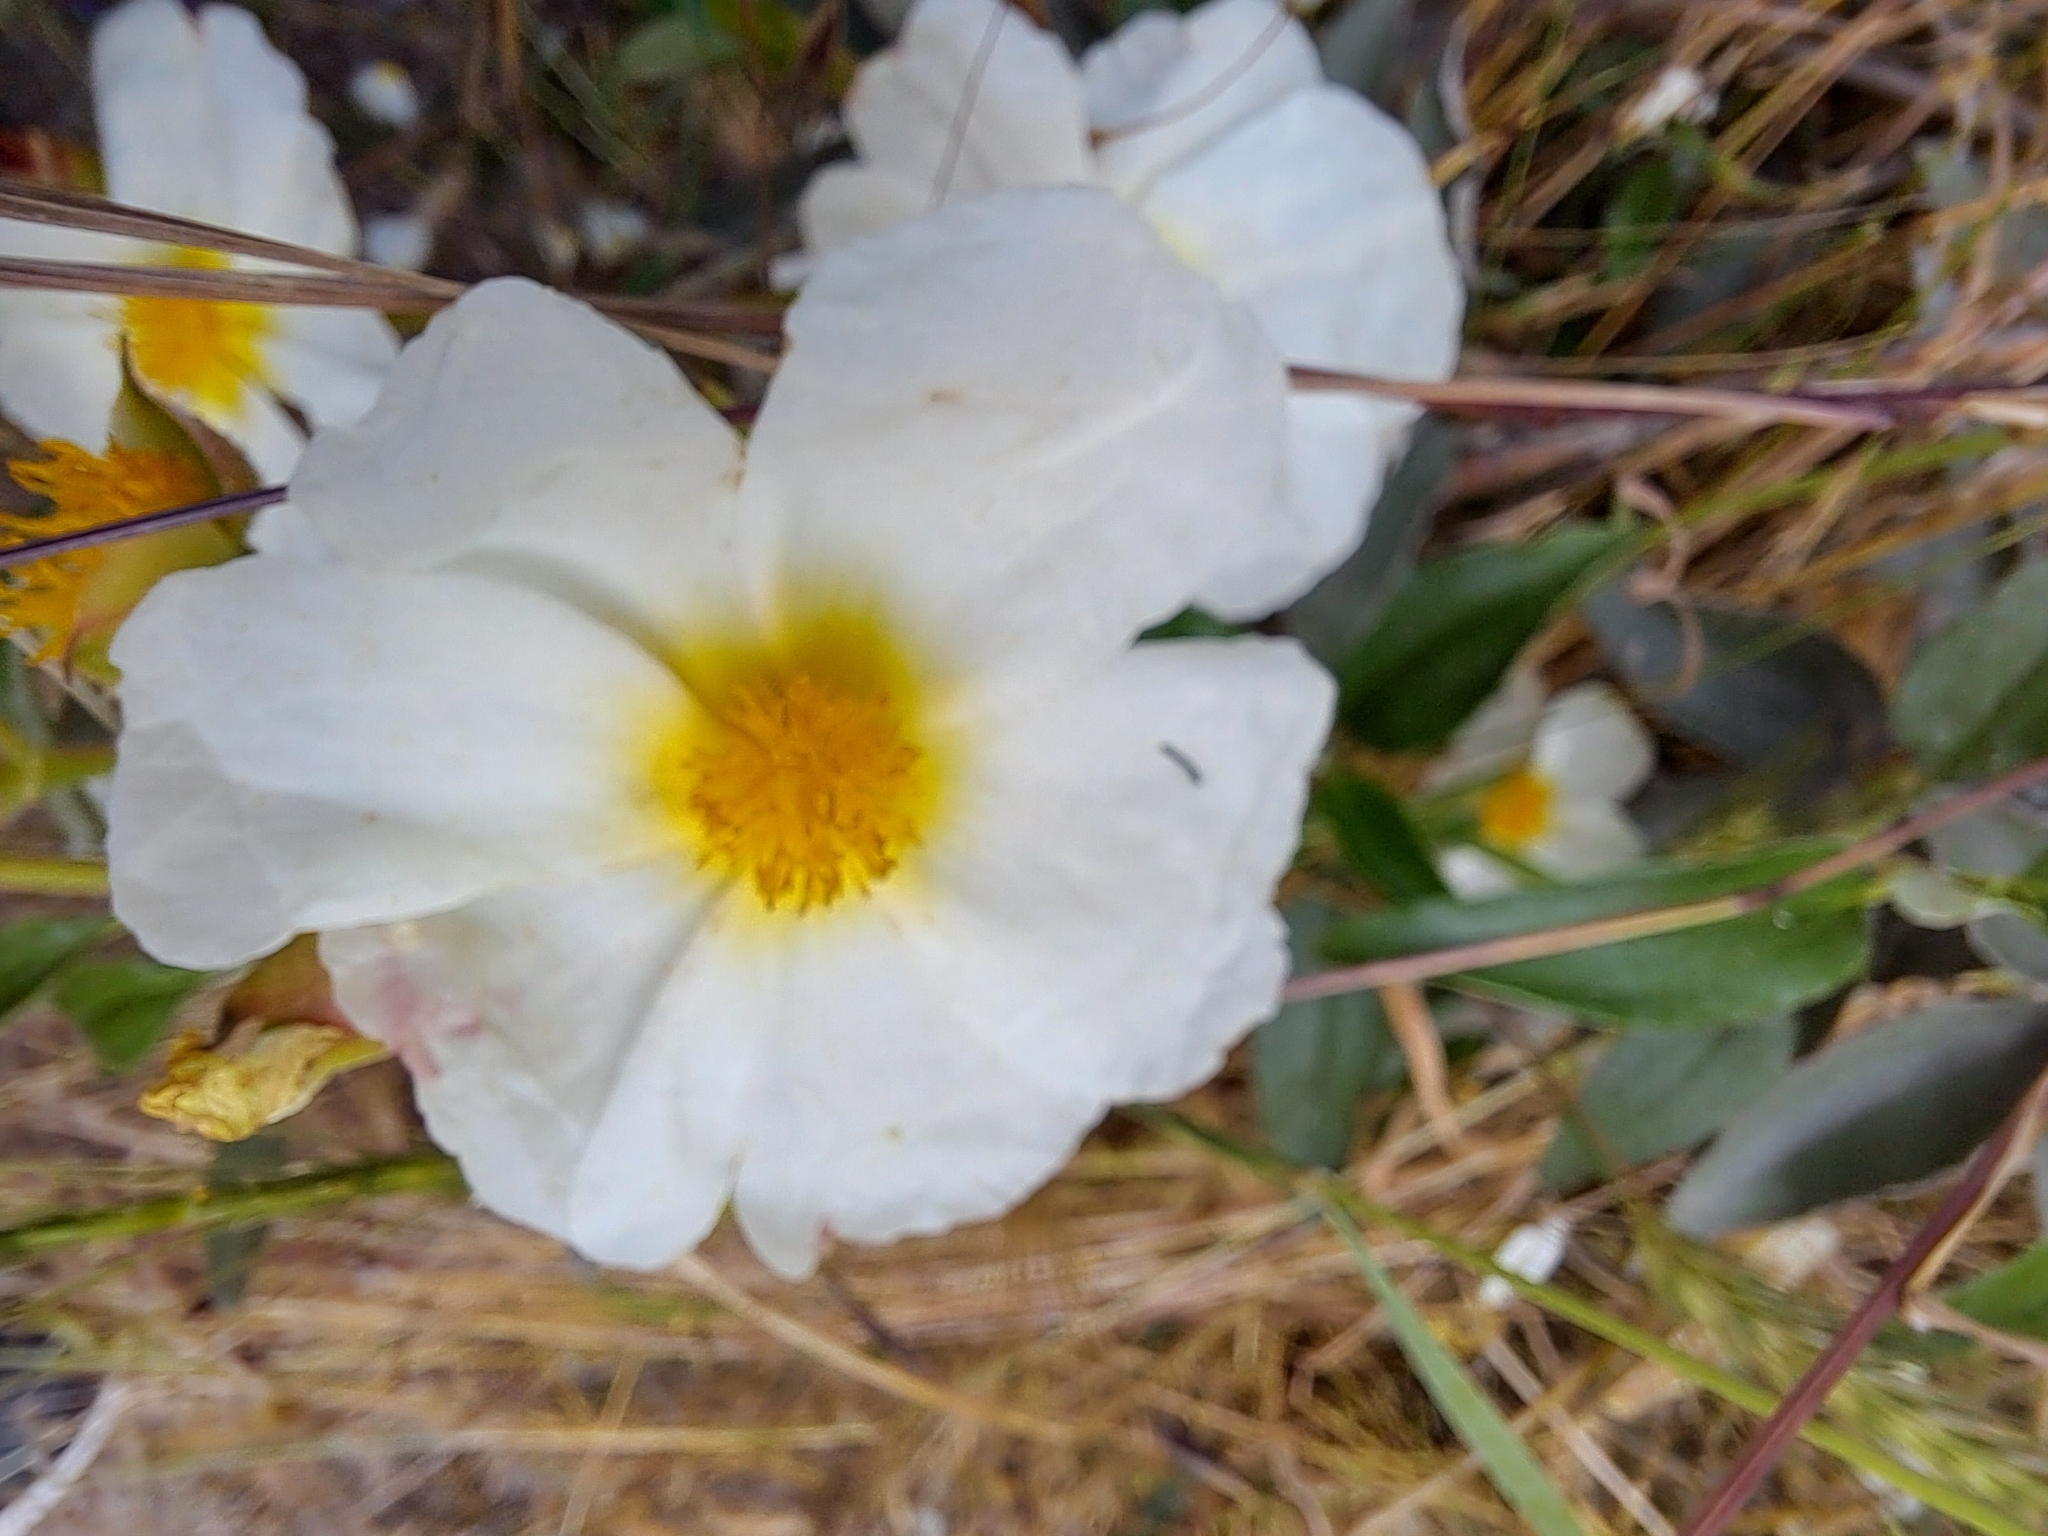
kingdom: Plantae
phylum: Tracheophyta
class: Magnoliopsida
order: Malvales
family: Cistaceae
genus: Cistus
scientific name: Cistus laurifolius
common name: Laurel-leaved cistus
